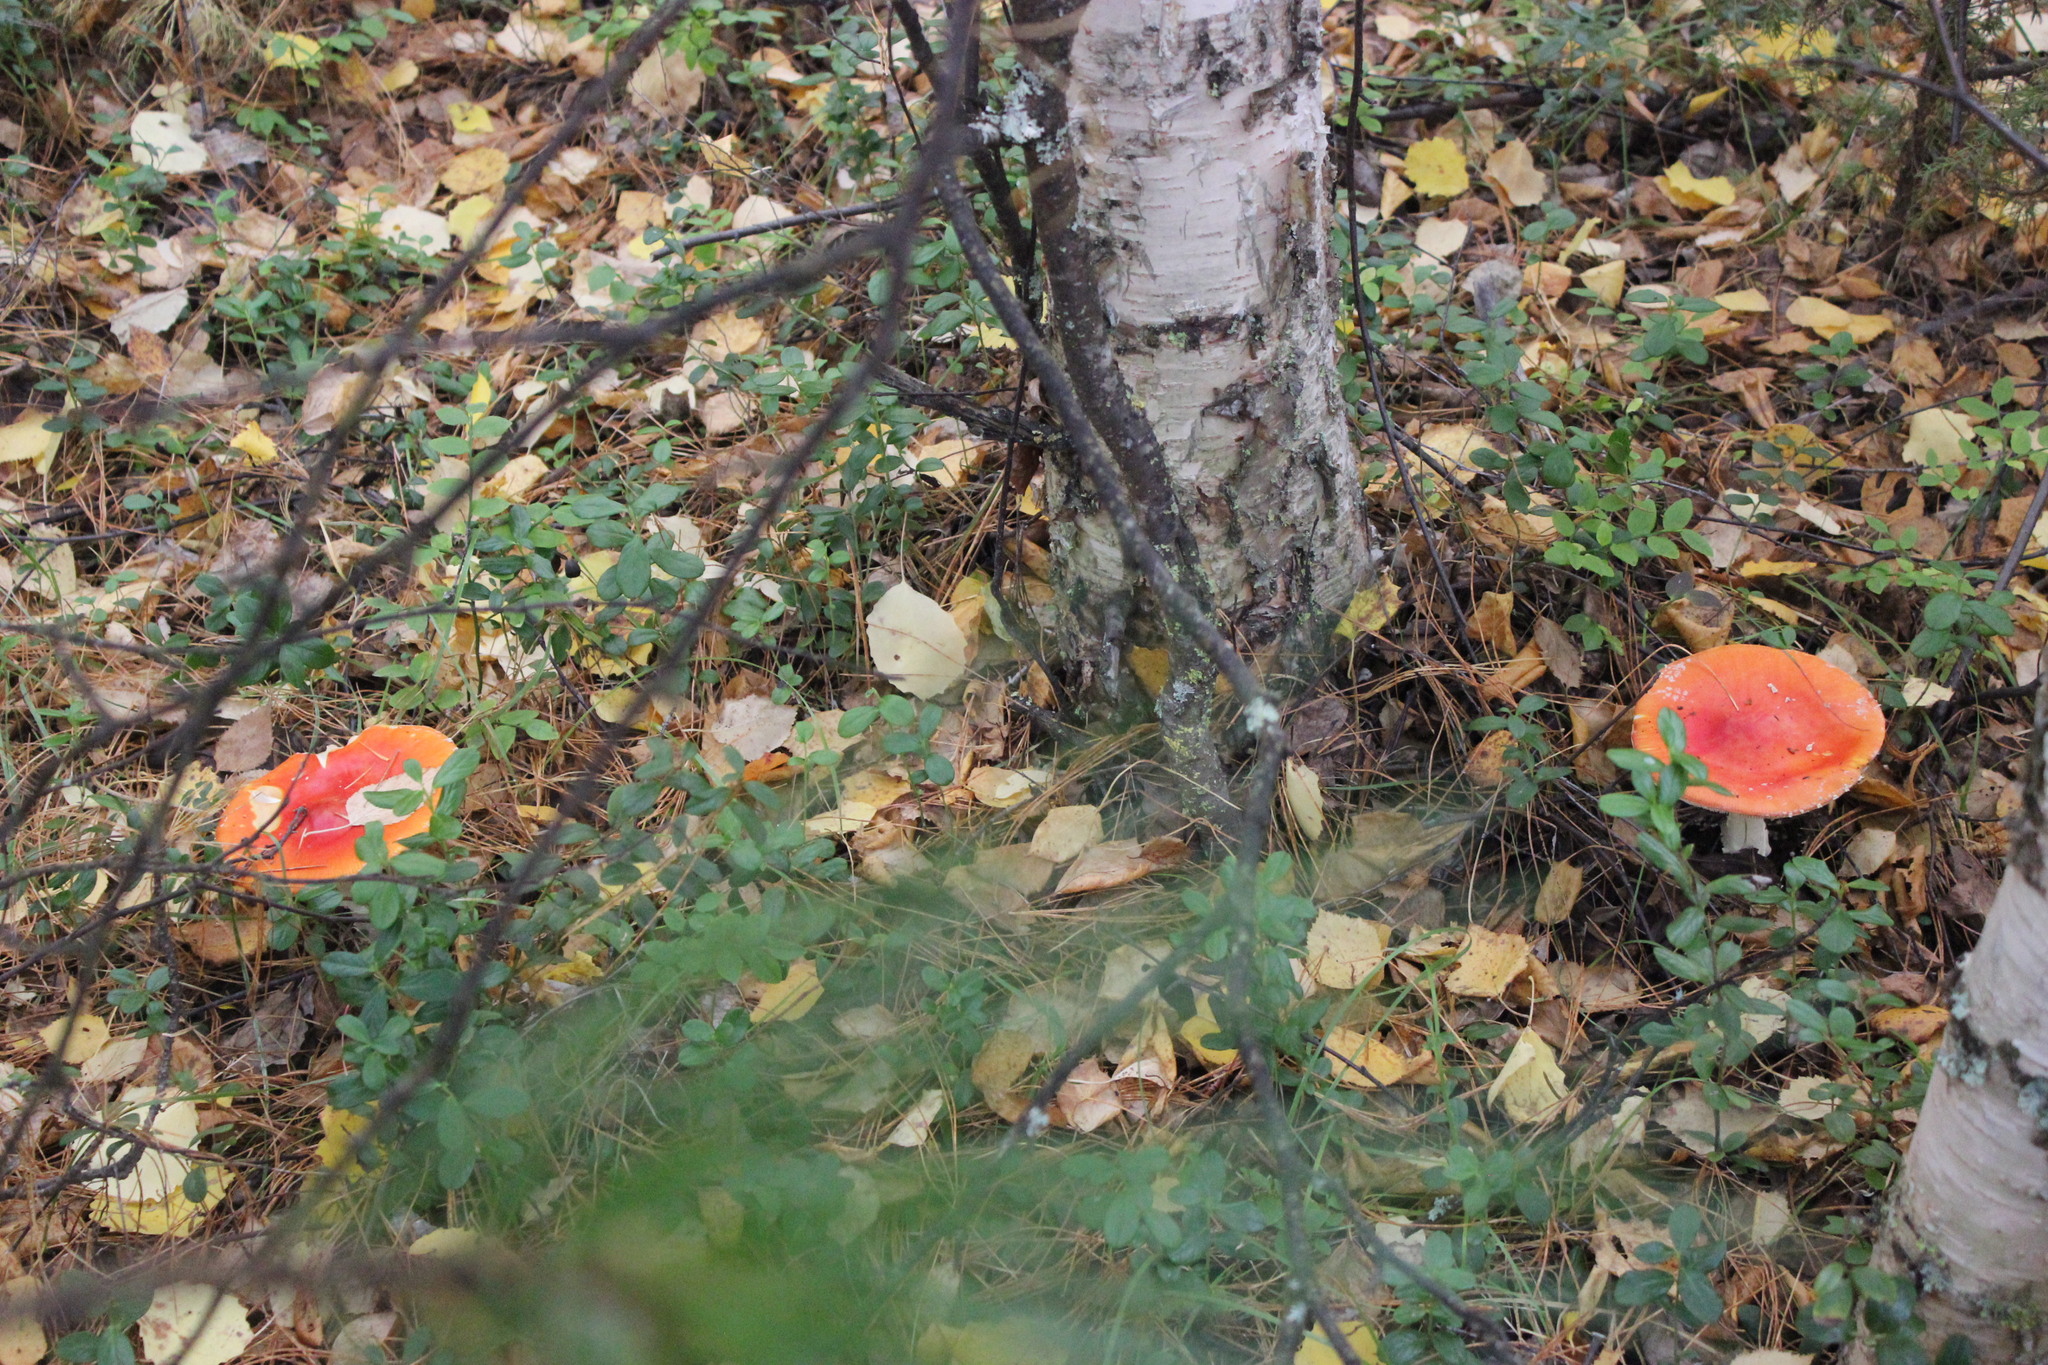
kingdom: Fungi
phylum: Basidiomycota
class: Agaricomycetes
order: Agaricales
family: Amanitaceae
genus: Amanita
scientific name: Amanita muscaria
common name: Fly agaric
